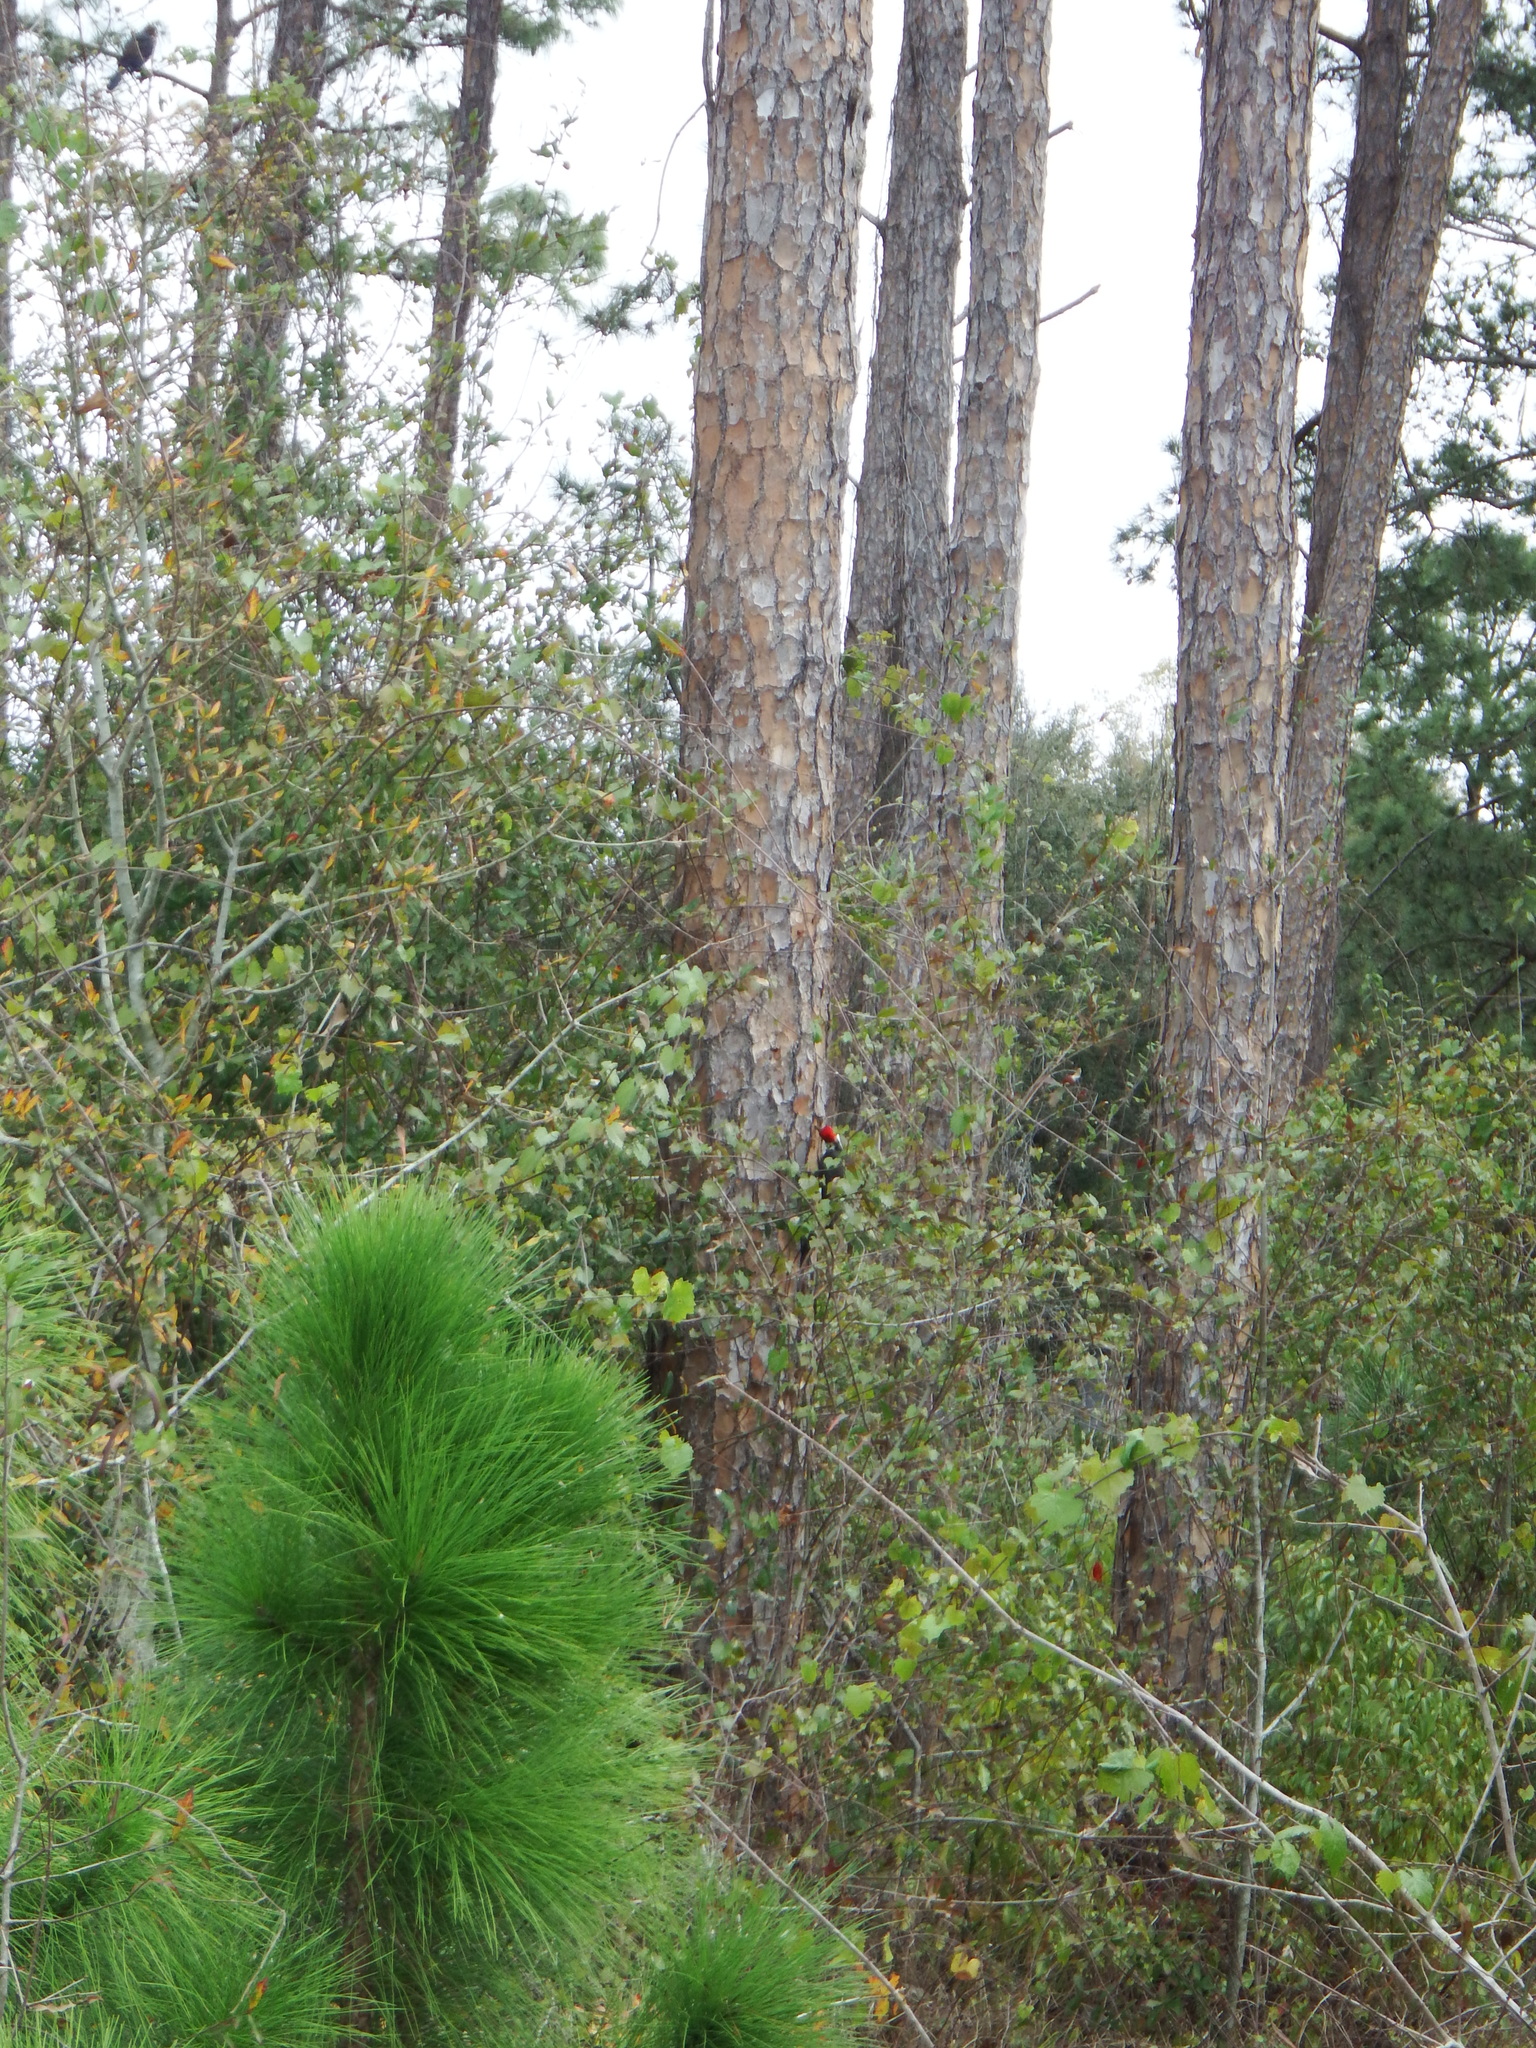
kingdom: Animalia
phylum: Chordata
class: Aves
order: Piciformes
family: Picidae
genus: Dryocopus
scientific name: Dryocopus pileatus
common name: Pileated woodpecker
